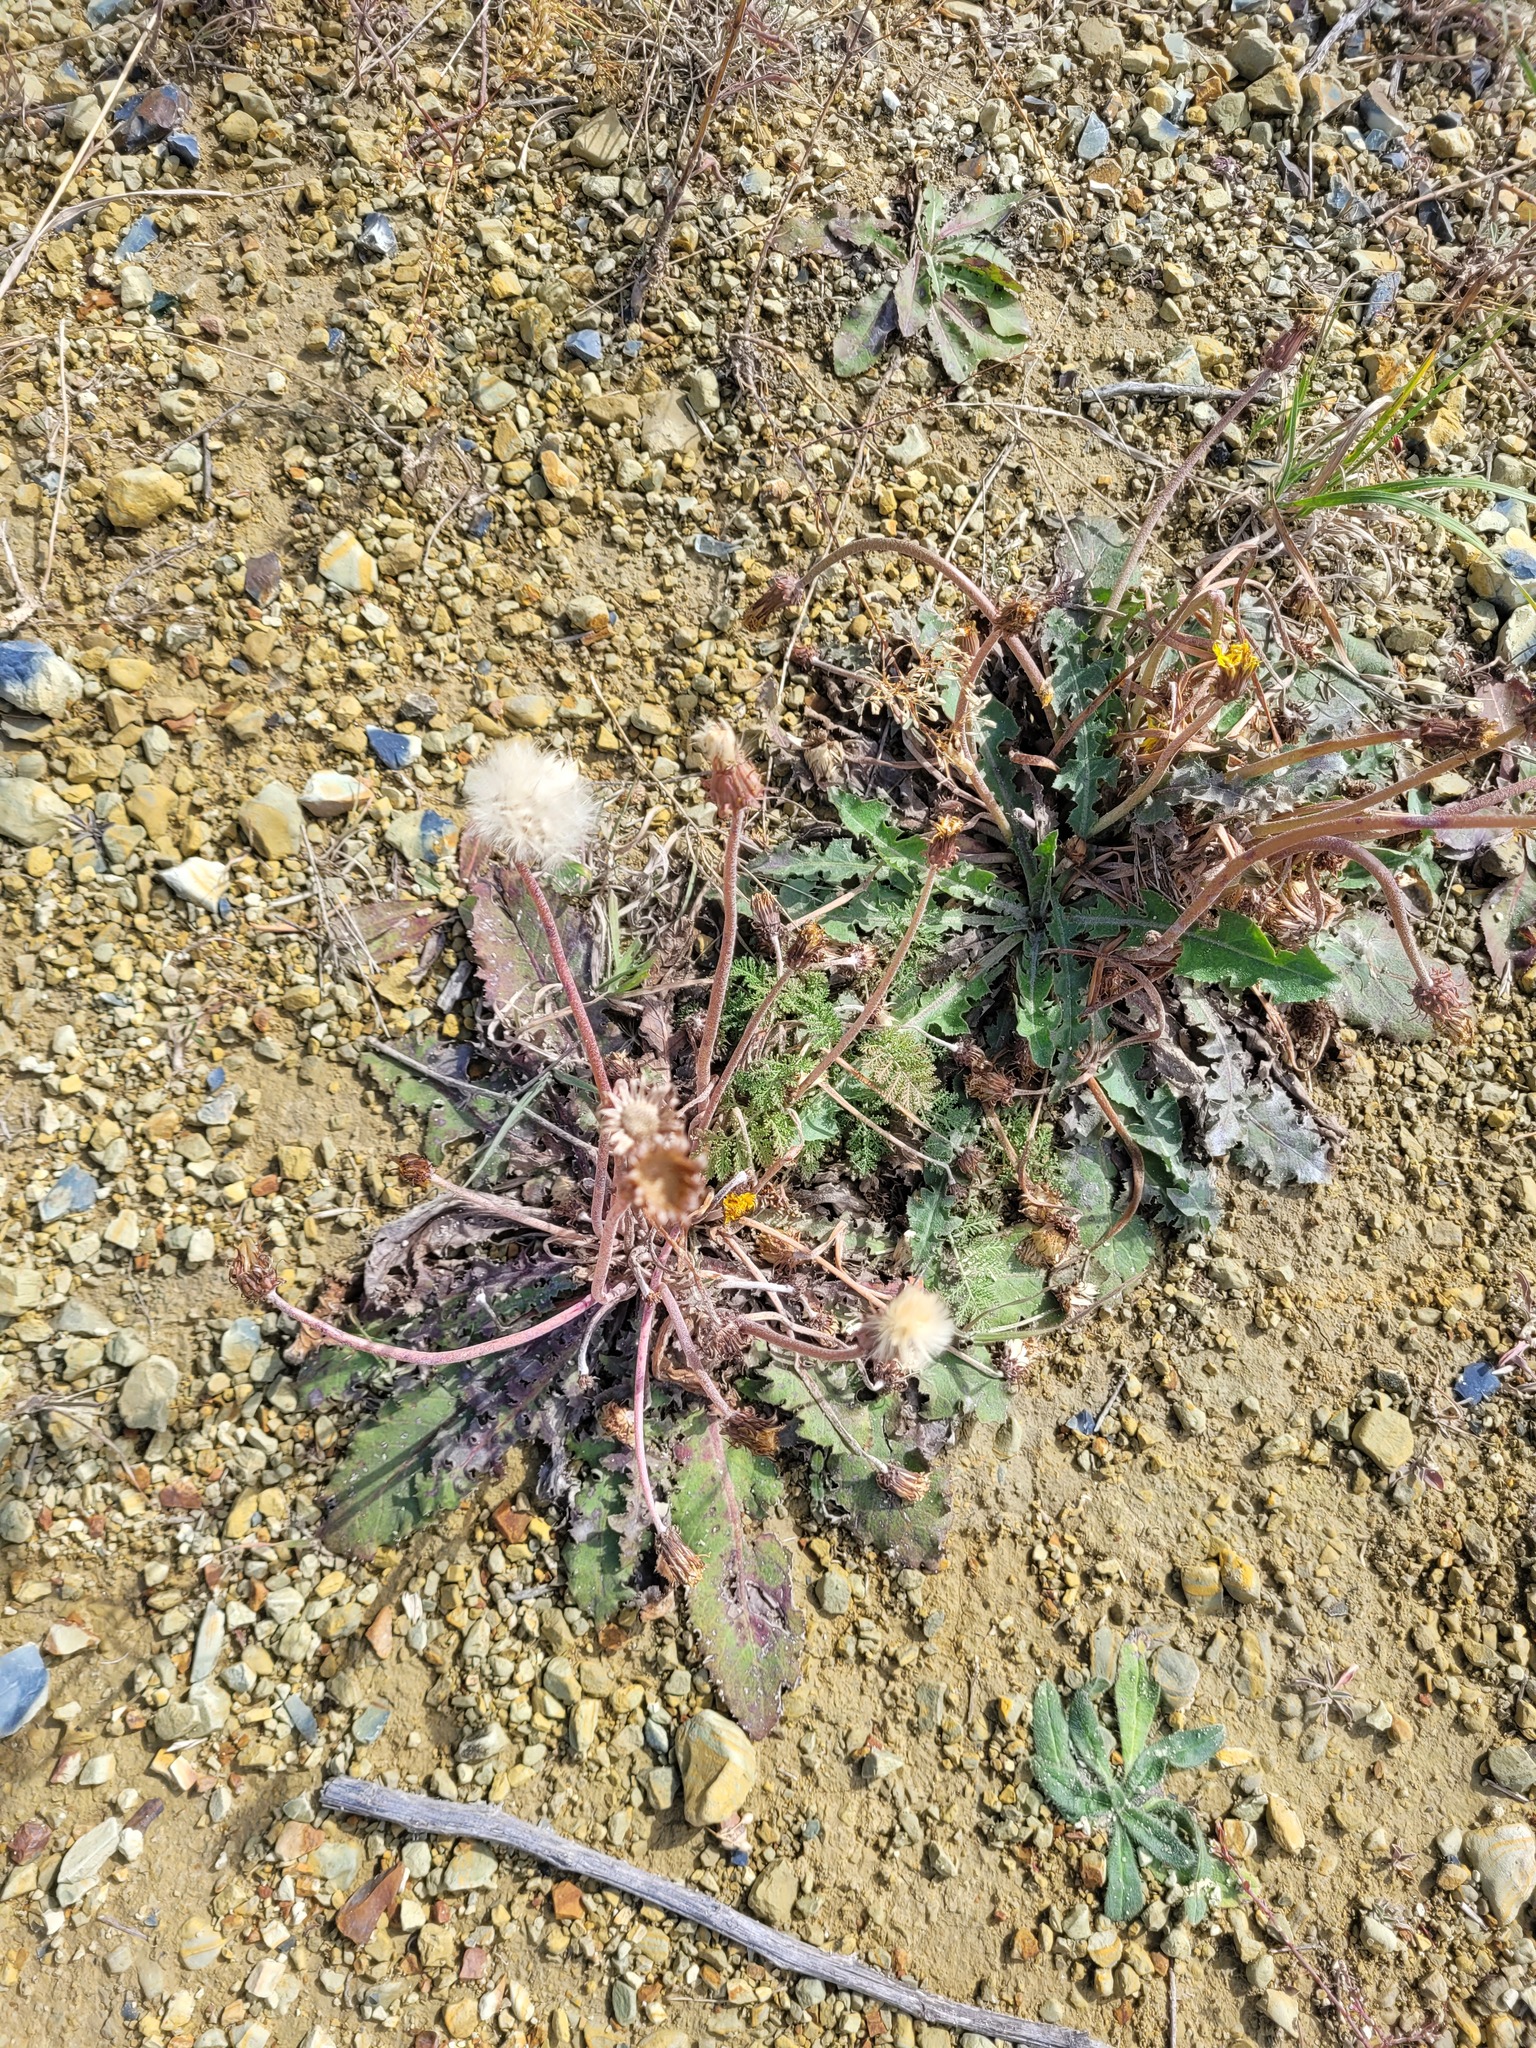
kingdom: Plantae
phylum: Tracheophyta
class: Magnoliopsida
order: Asterales
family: Asteraceae
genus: Taraxacum
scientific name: Taraxacum serotinum
